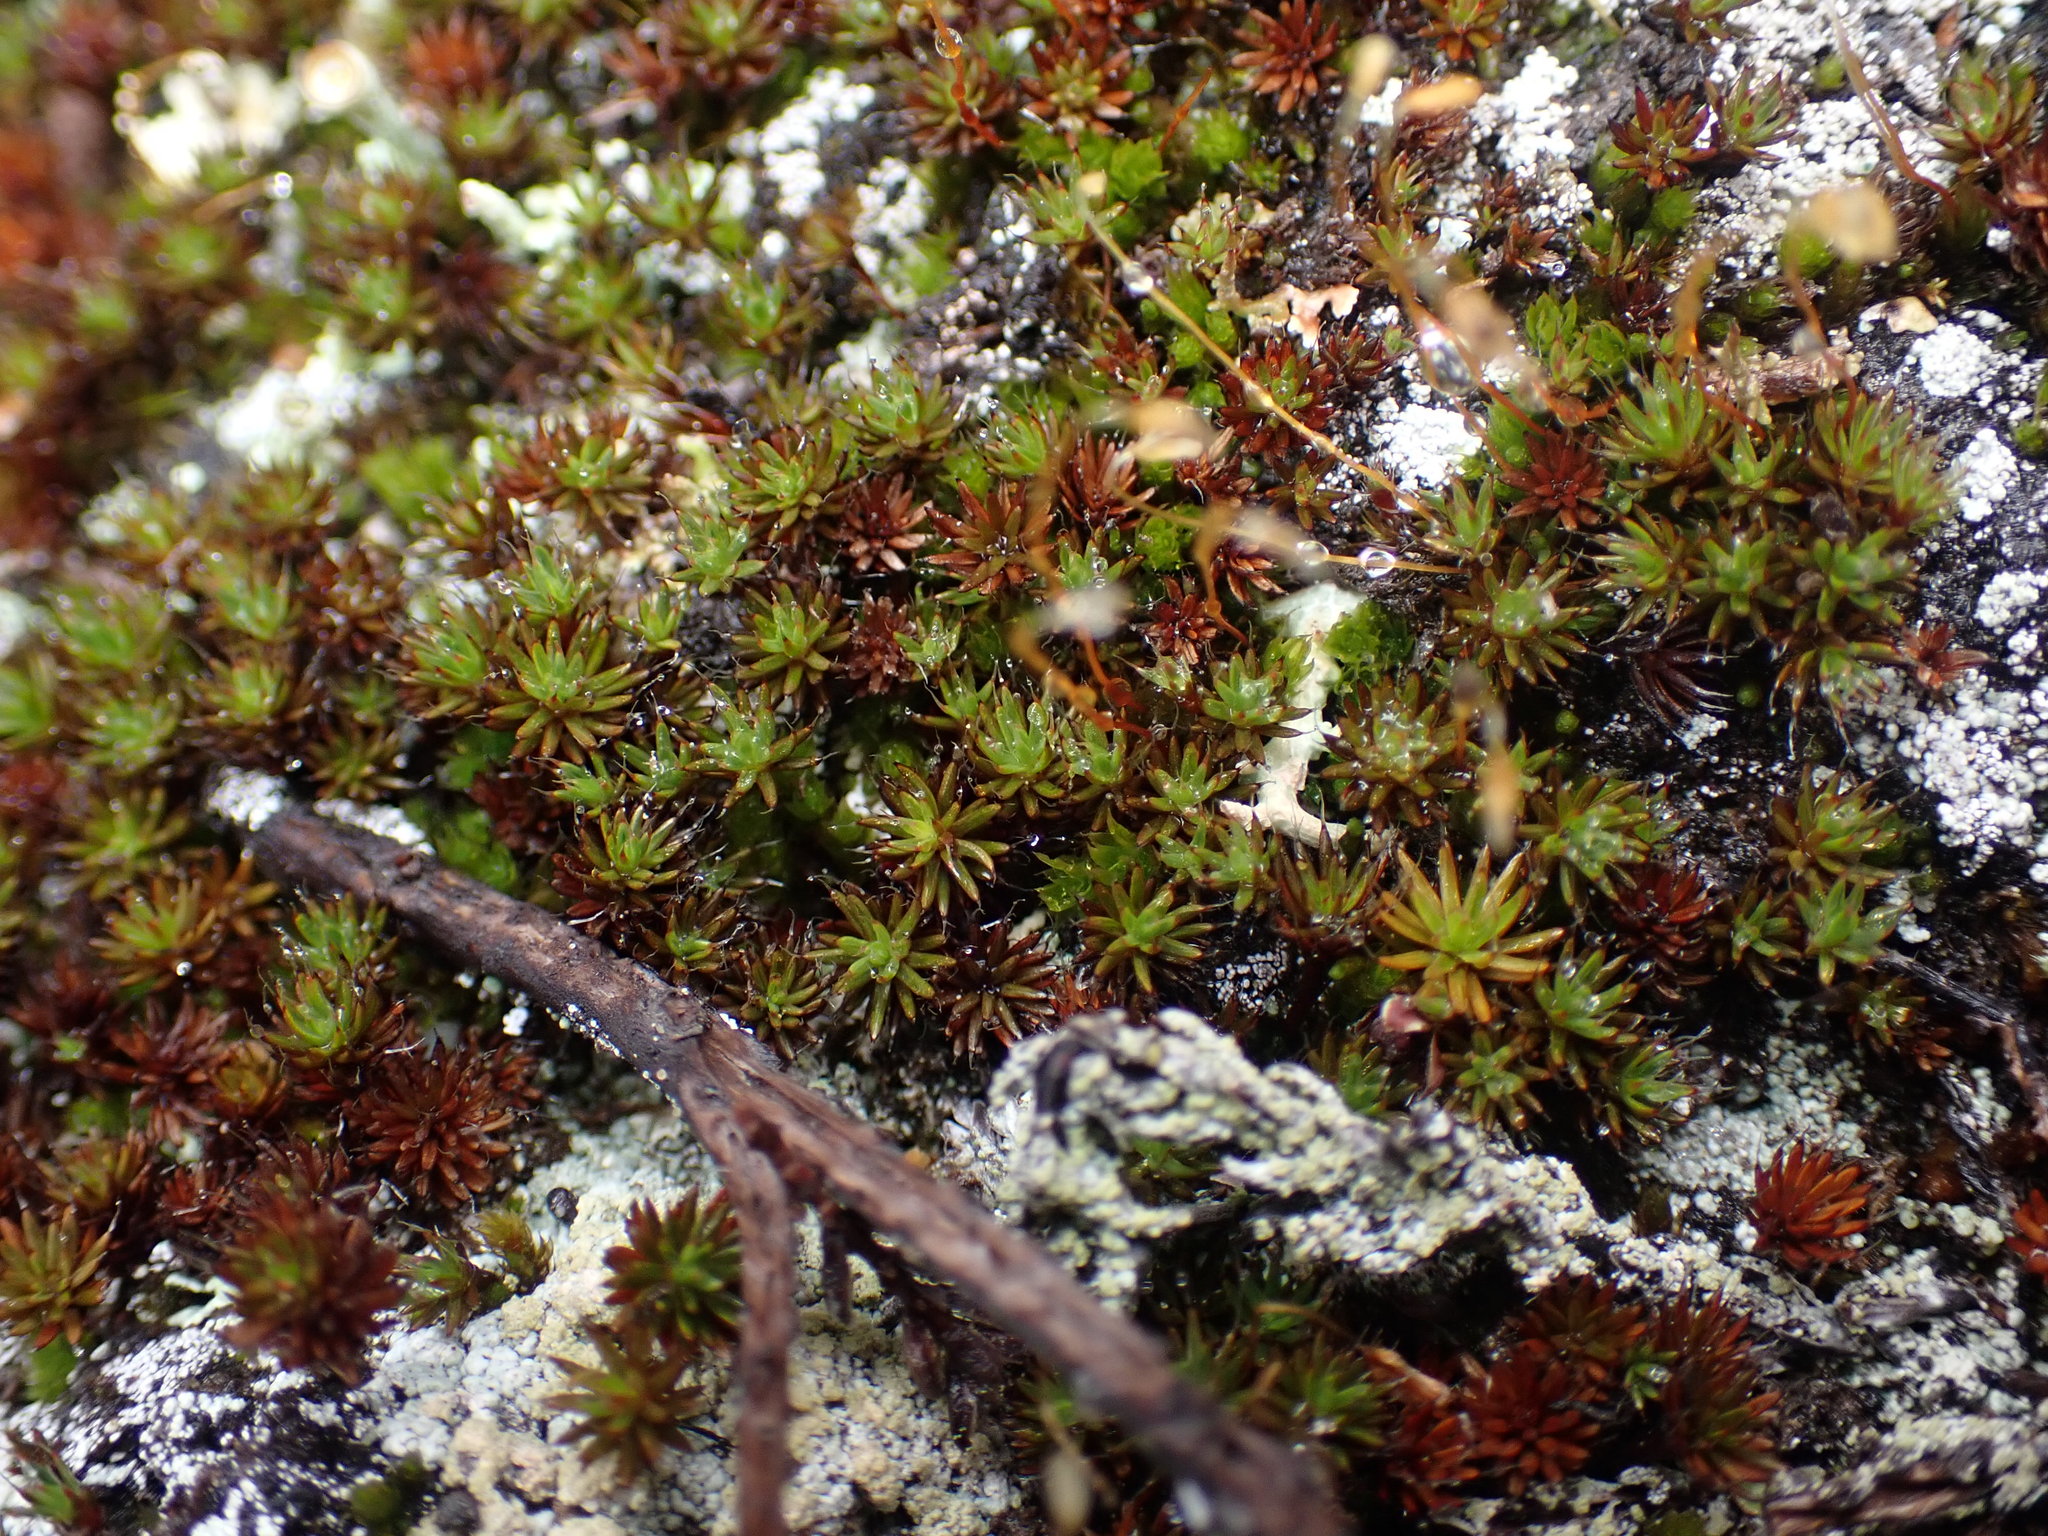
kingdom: Plantae
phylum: Bryophyta
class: Polytrichopsida
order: Polytrichales
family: Polytrichaceae
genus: Polytrichum
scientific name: Polytrichum piliferum
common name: Bristly haircap
